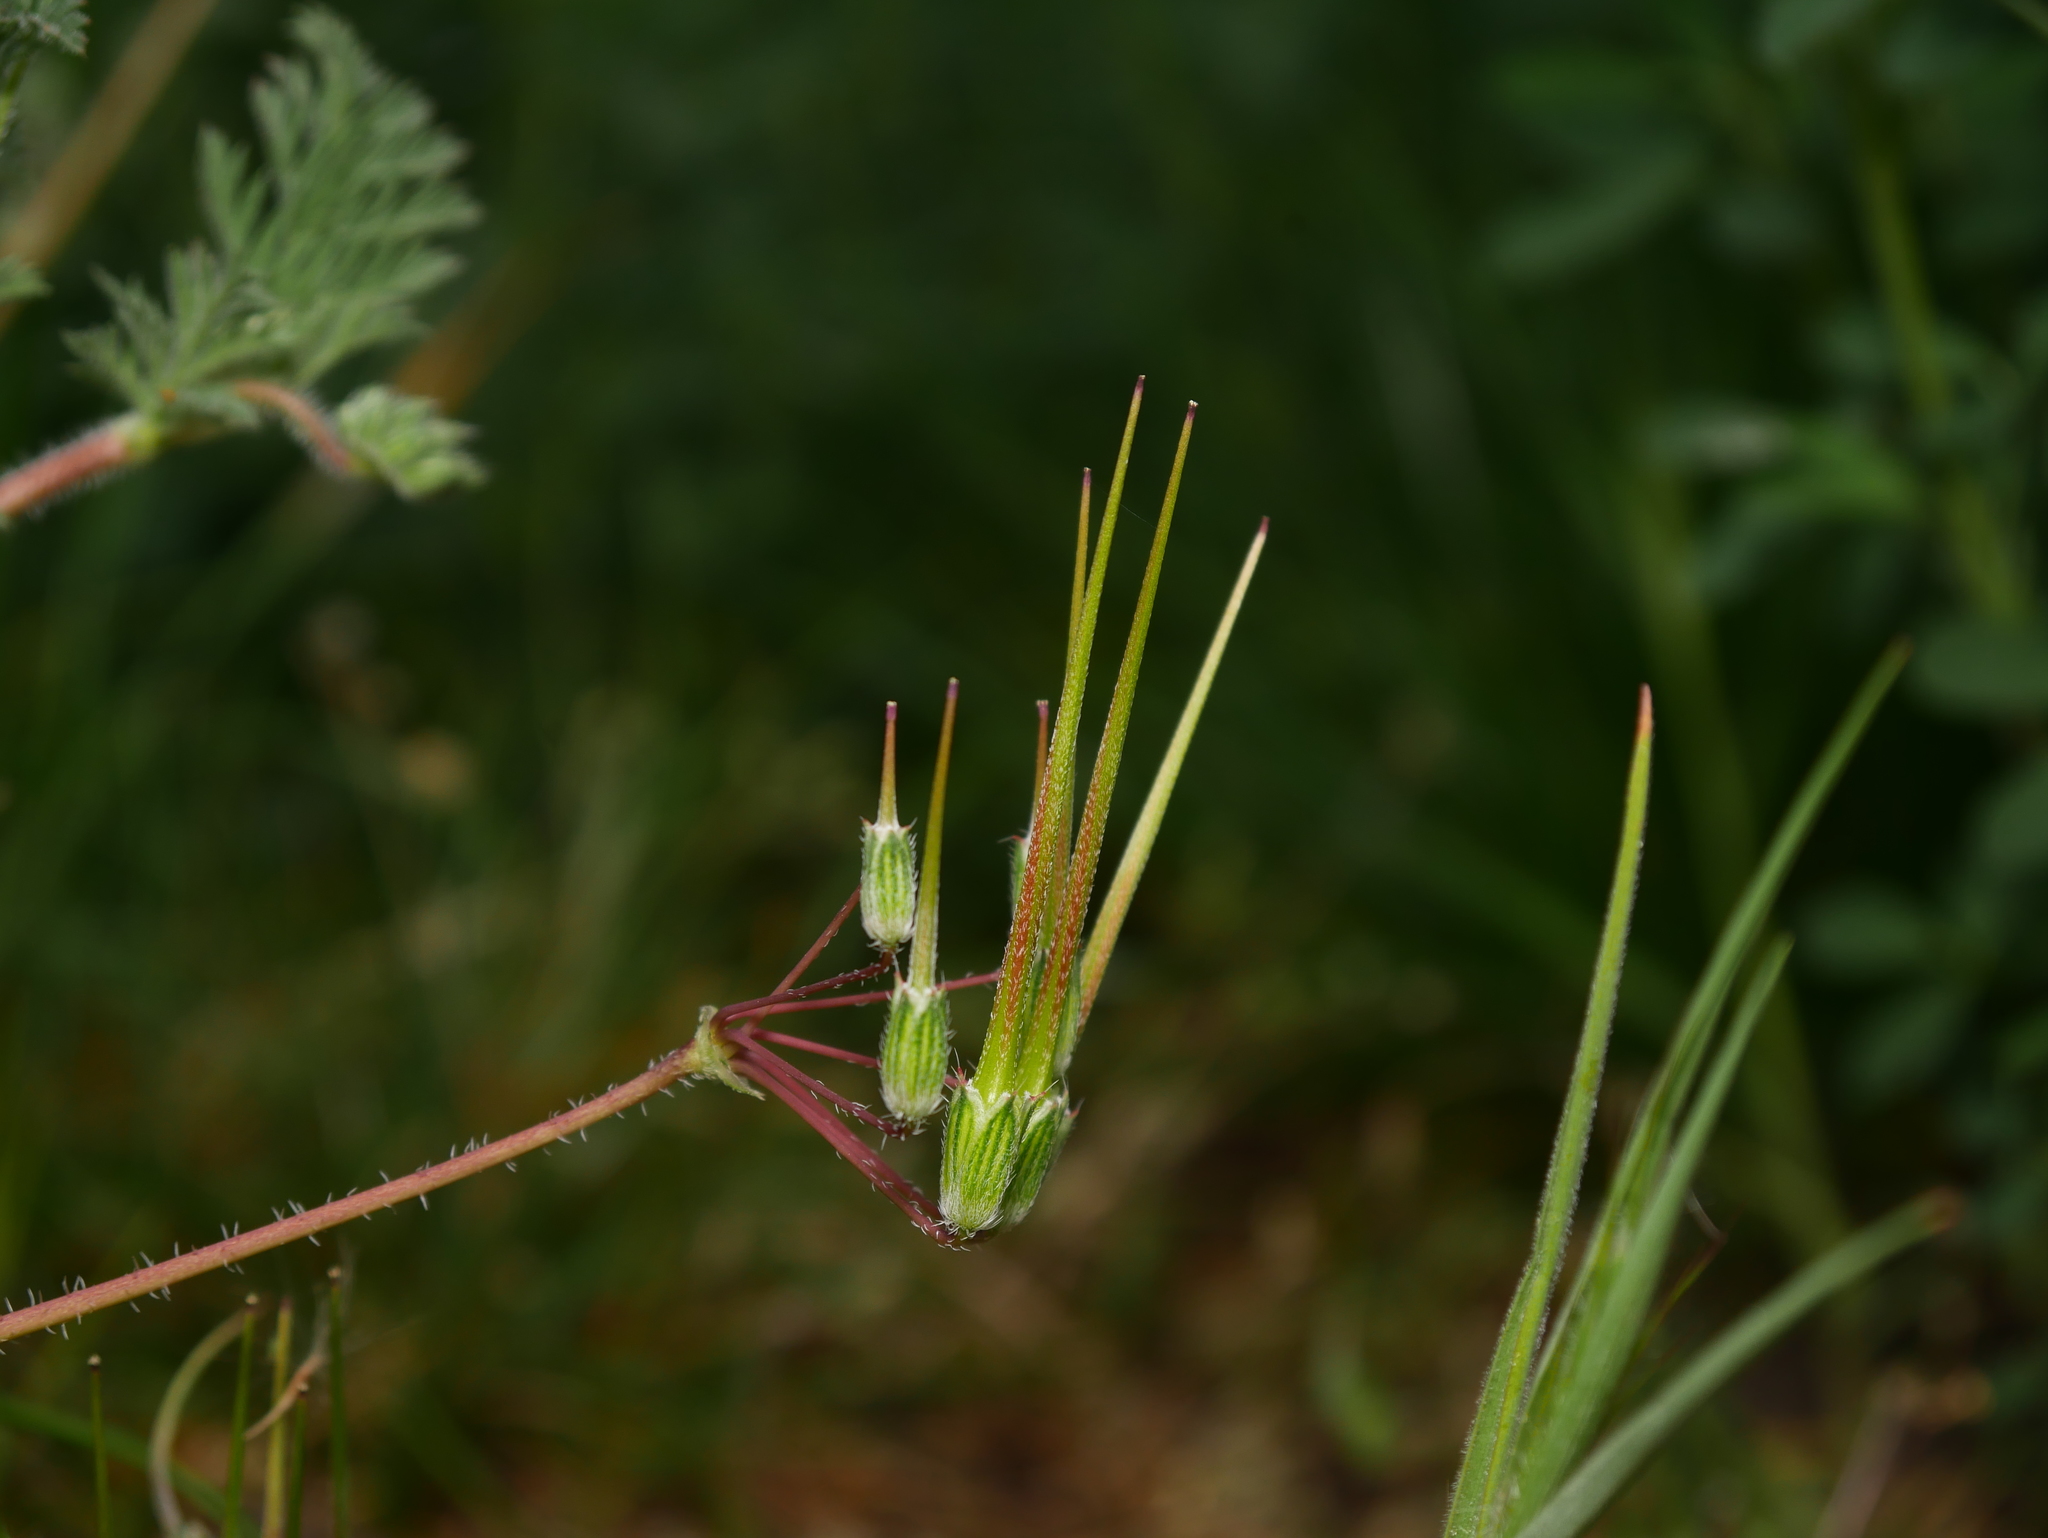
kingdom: Plantae
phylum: Tracheophyta
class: Magnoliopsida
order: Geraniales
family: Geraniaceae
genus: Erodium
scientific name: Erodium cicutarium
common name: Common stork's-bill
